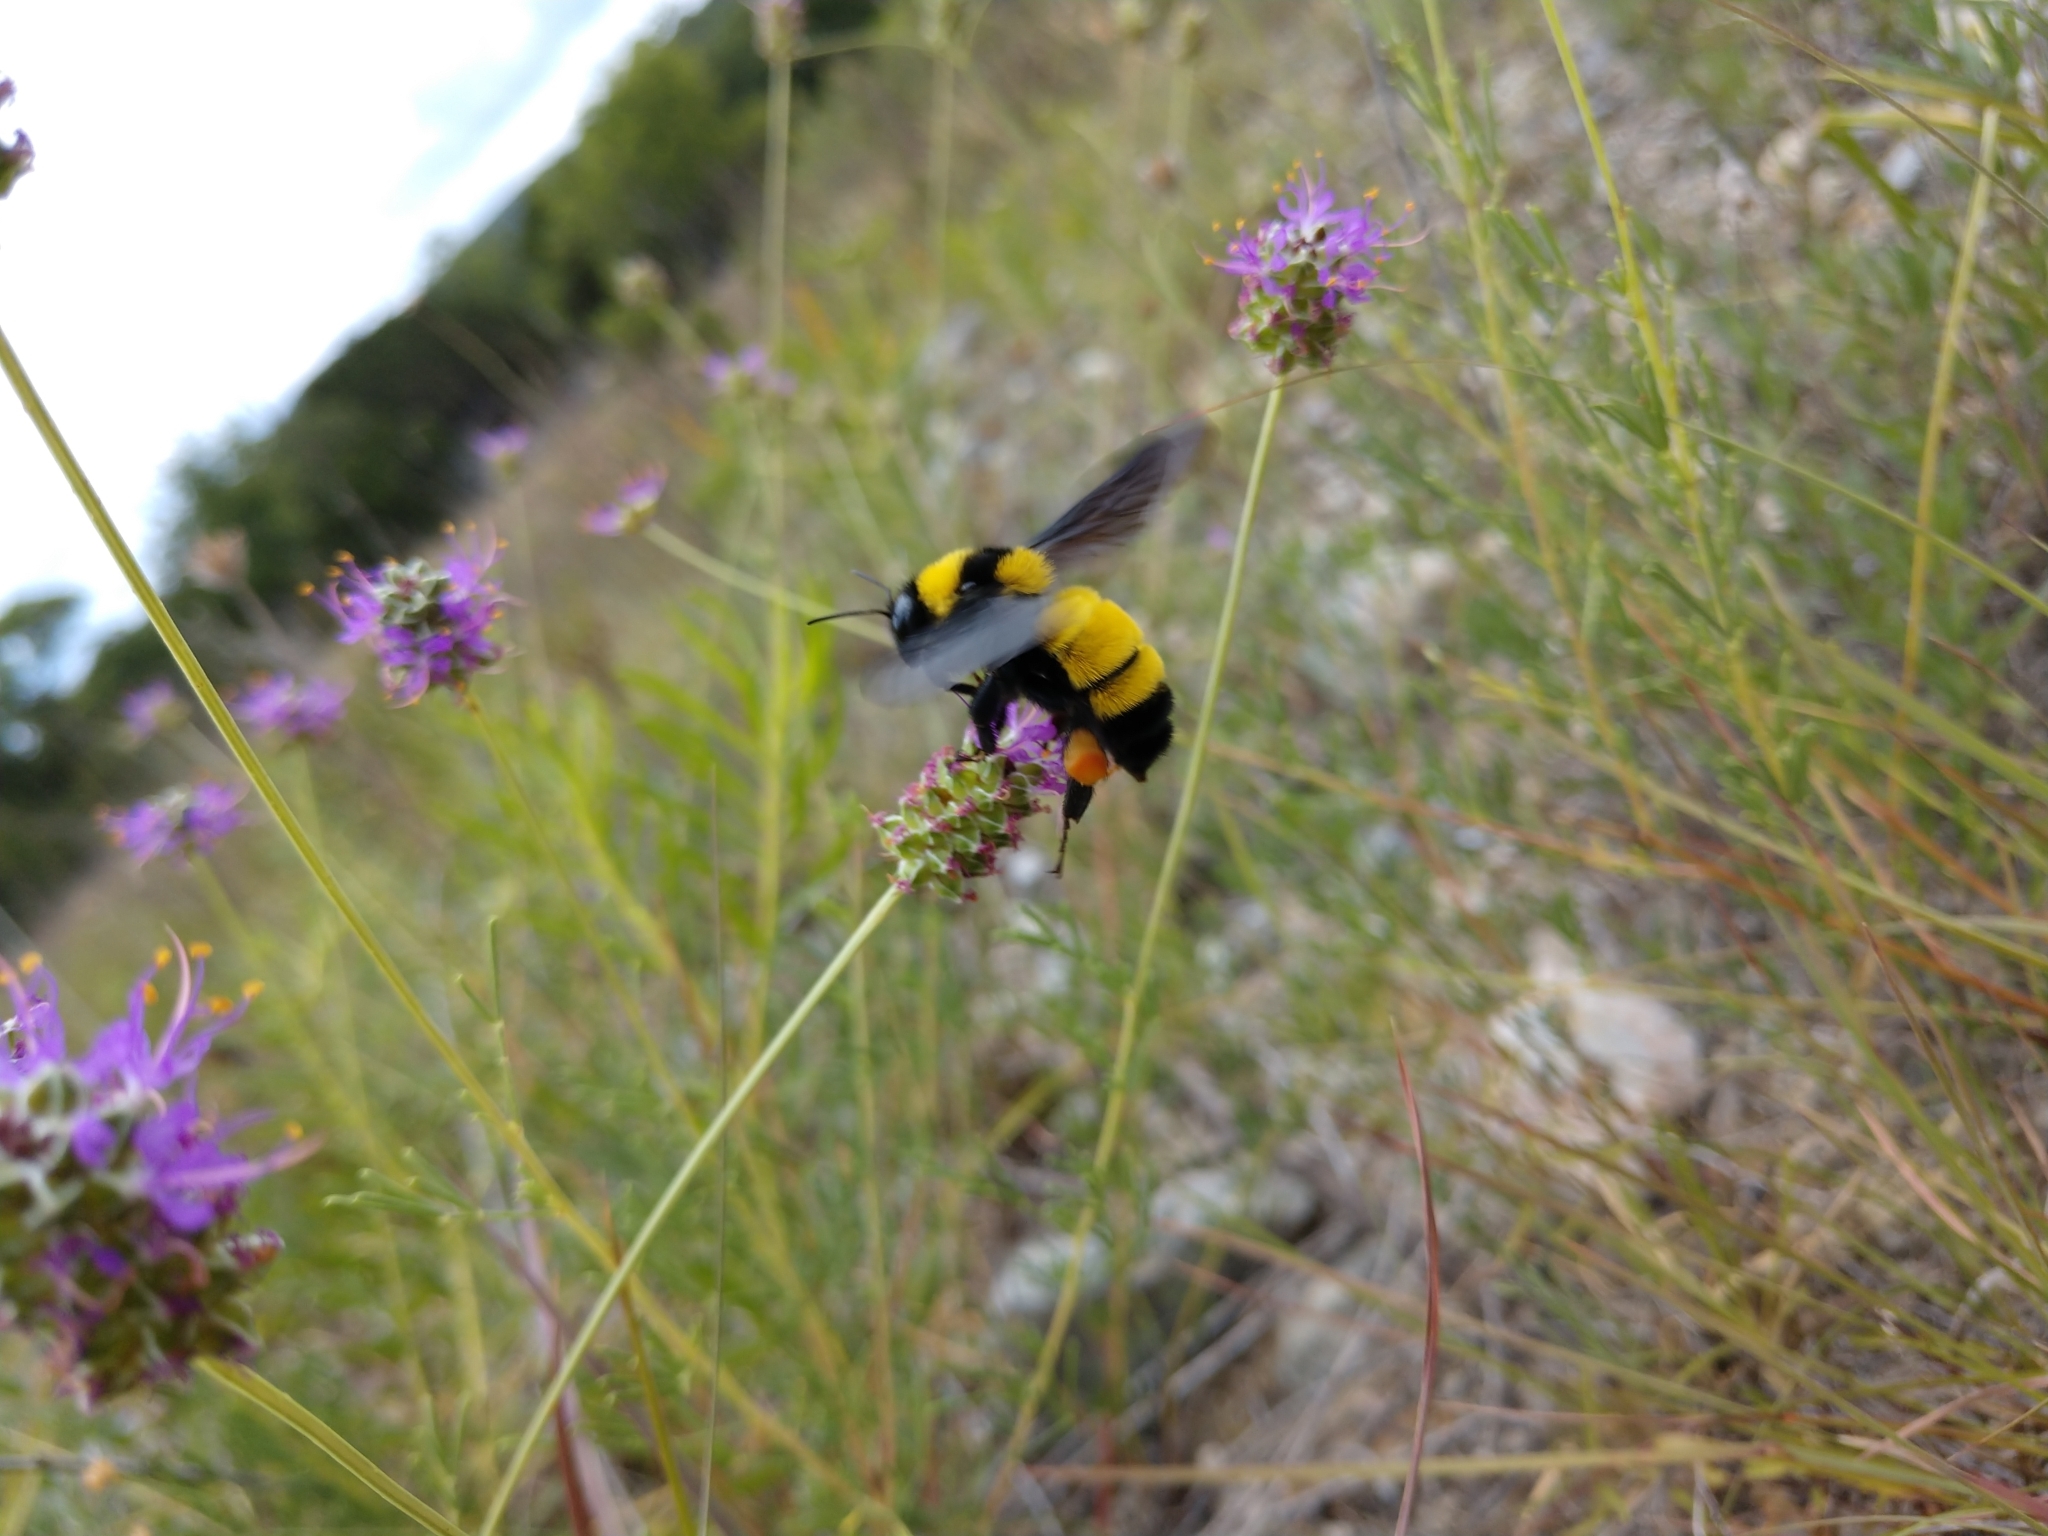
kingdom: Animalia
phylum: Arthropoda
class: Insecta
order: Hymenoptera
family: Apidae
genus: Bombus
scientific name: Bombus sonorus
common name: Sonoran bumble bee
